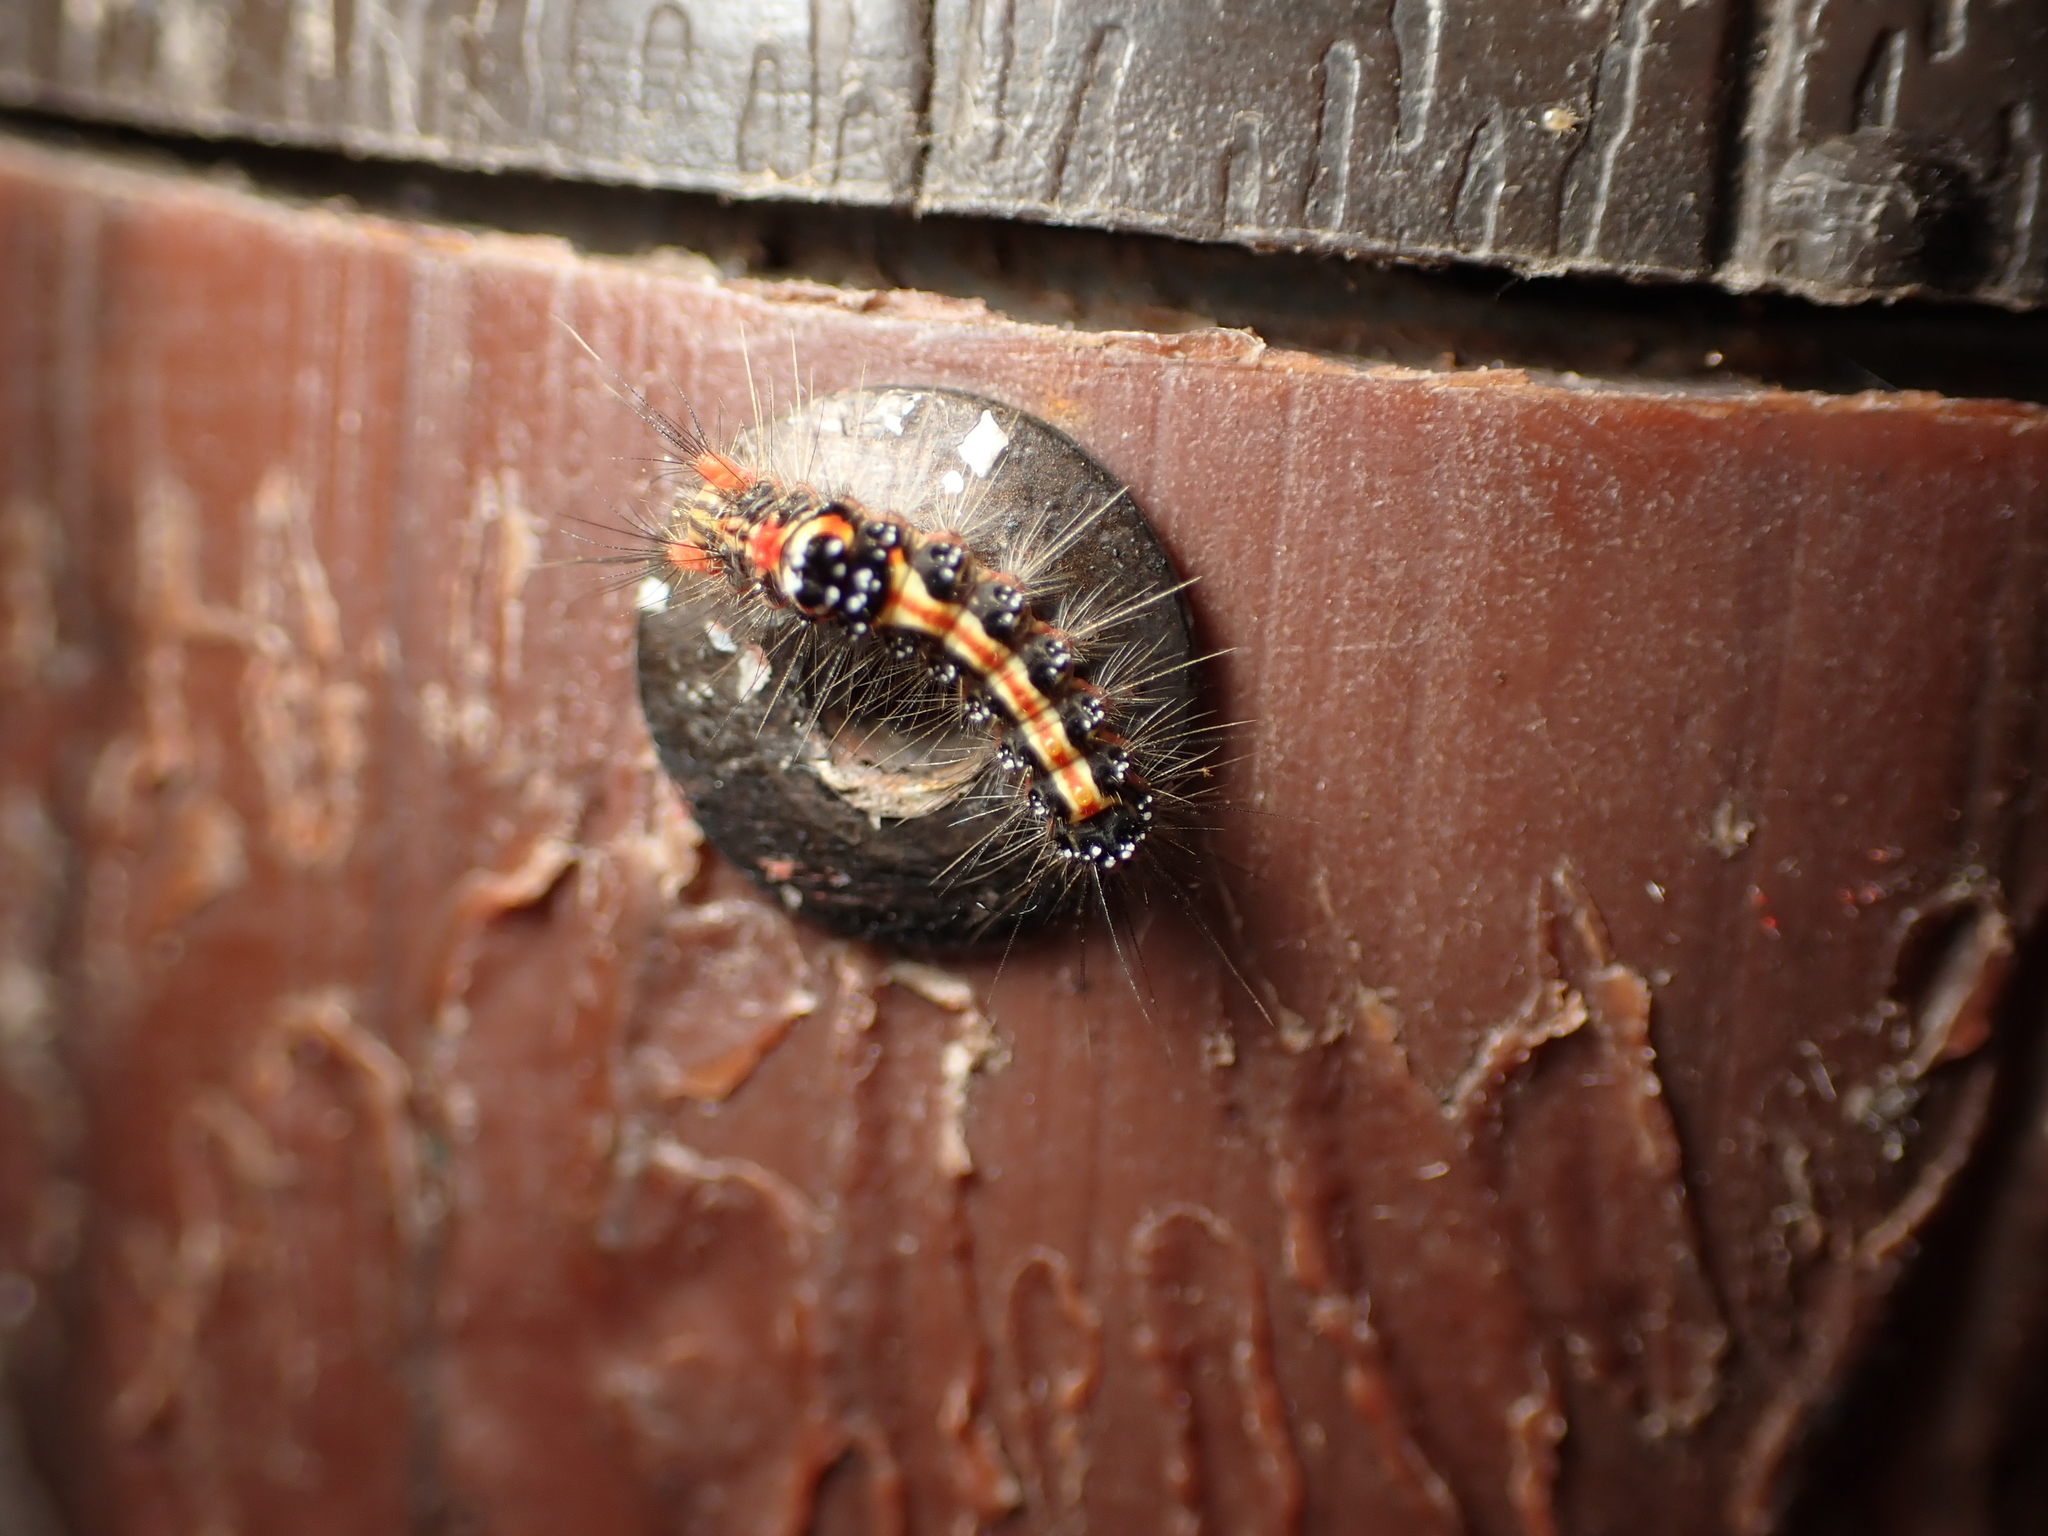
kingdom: Animalia
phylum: Arthropoda
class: Insecta
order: Lepidoptera
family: Erebidae
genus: Orvasca
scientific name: Orvasca subnotata
